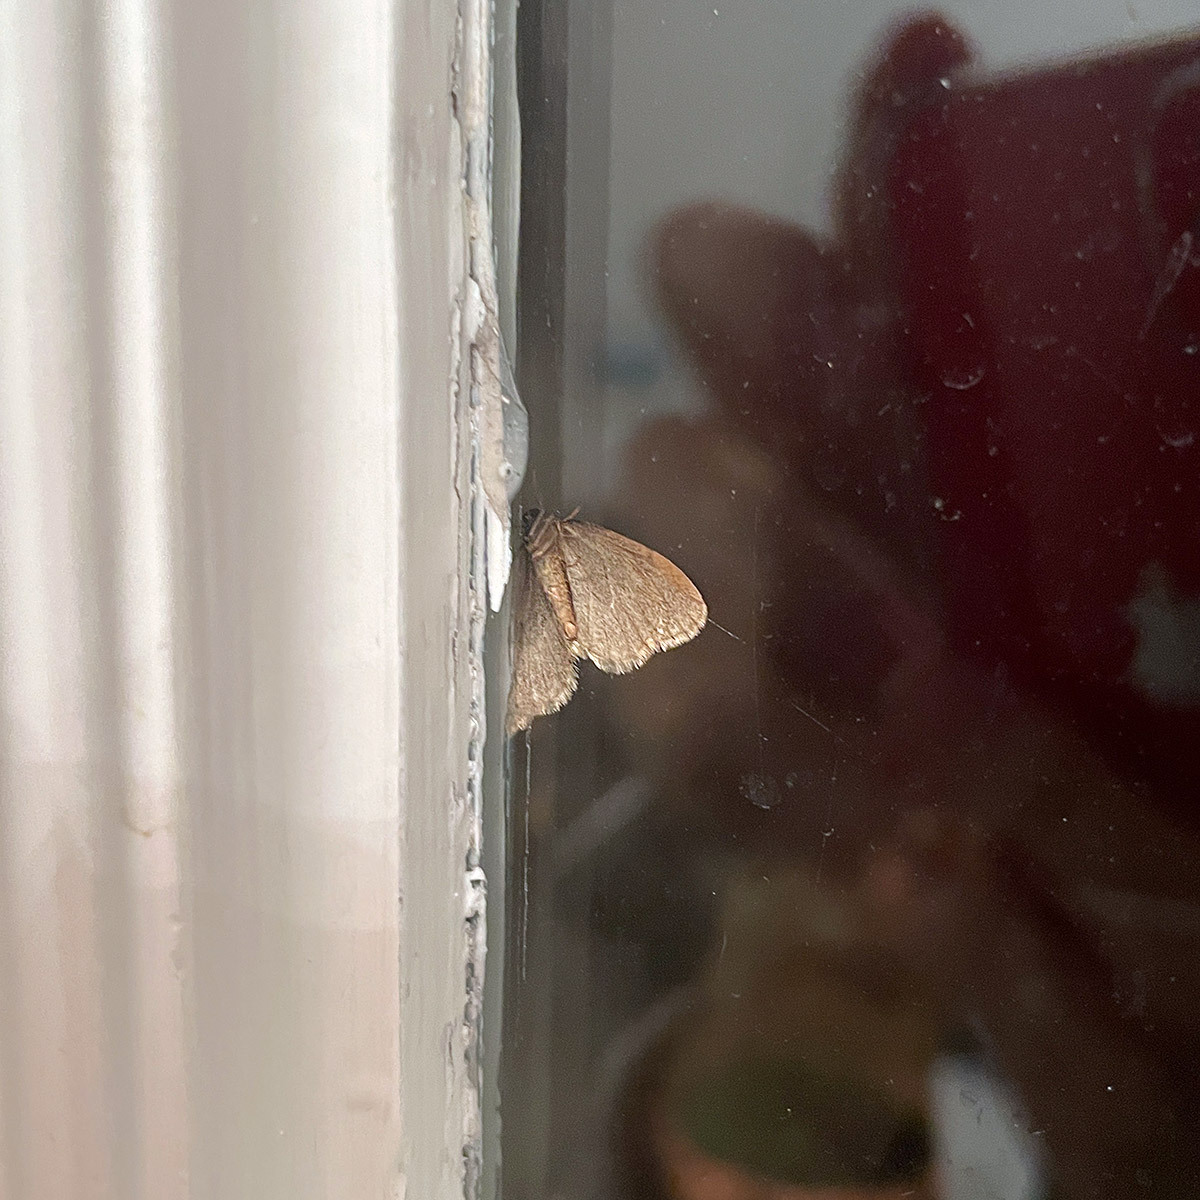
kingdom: Animalia
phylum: Arthropoda
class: Insecta
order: Lepidoptera
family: Geometridae
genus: Operophtera
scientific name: Operophtera brumata
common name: Winter moth
